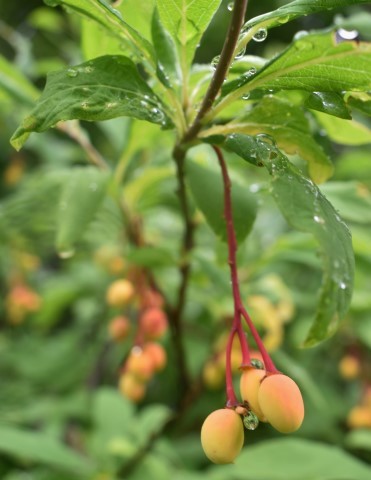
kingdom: Plantae
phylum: Tracheophyta
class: Magnoliopsida
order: Rosales
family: Rosaceae
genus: Oemleria
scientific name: Oemleria cerasiformis
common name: Osoberry
